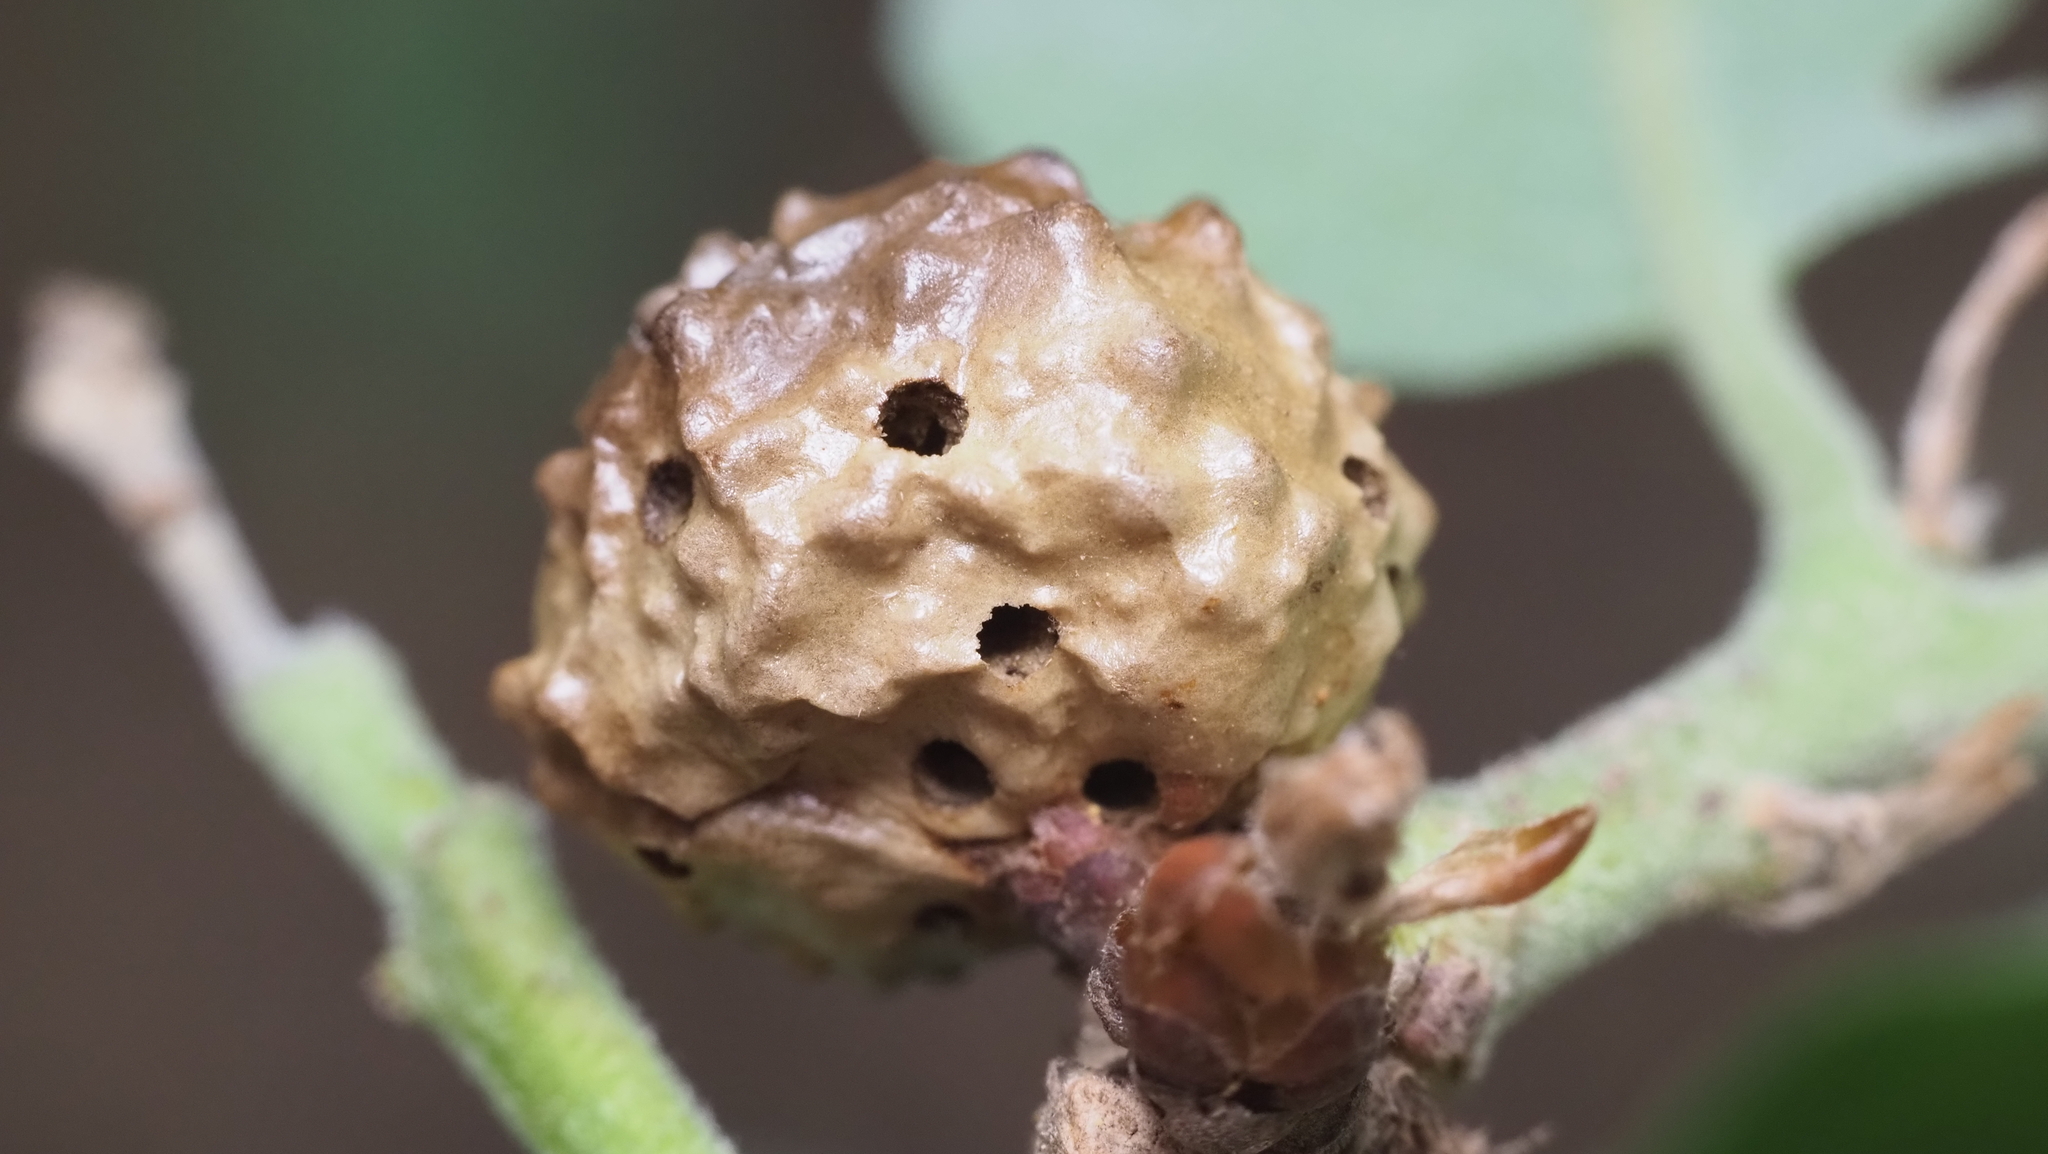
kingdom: Animalia
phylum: Arthropoda
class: Insecta
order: Hymenoptera
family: Cynipidae
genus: Andricus
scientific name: Andricus
